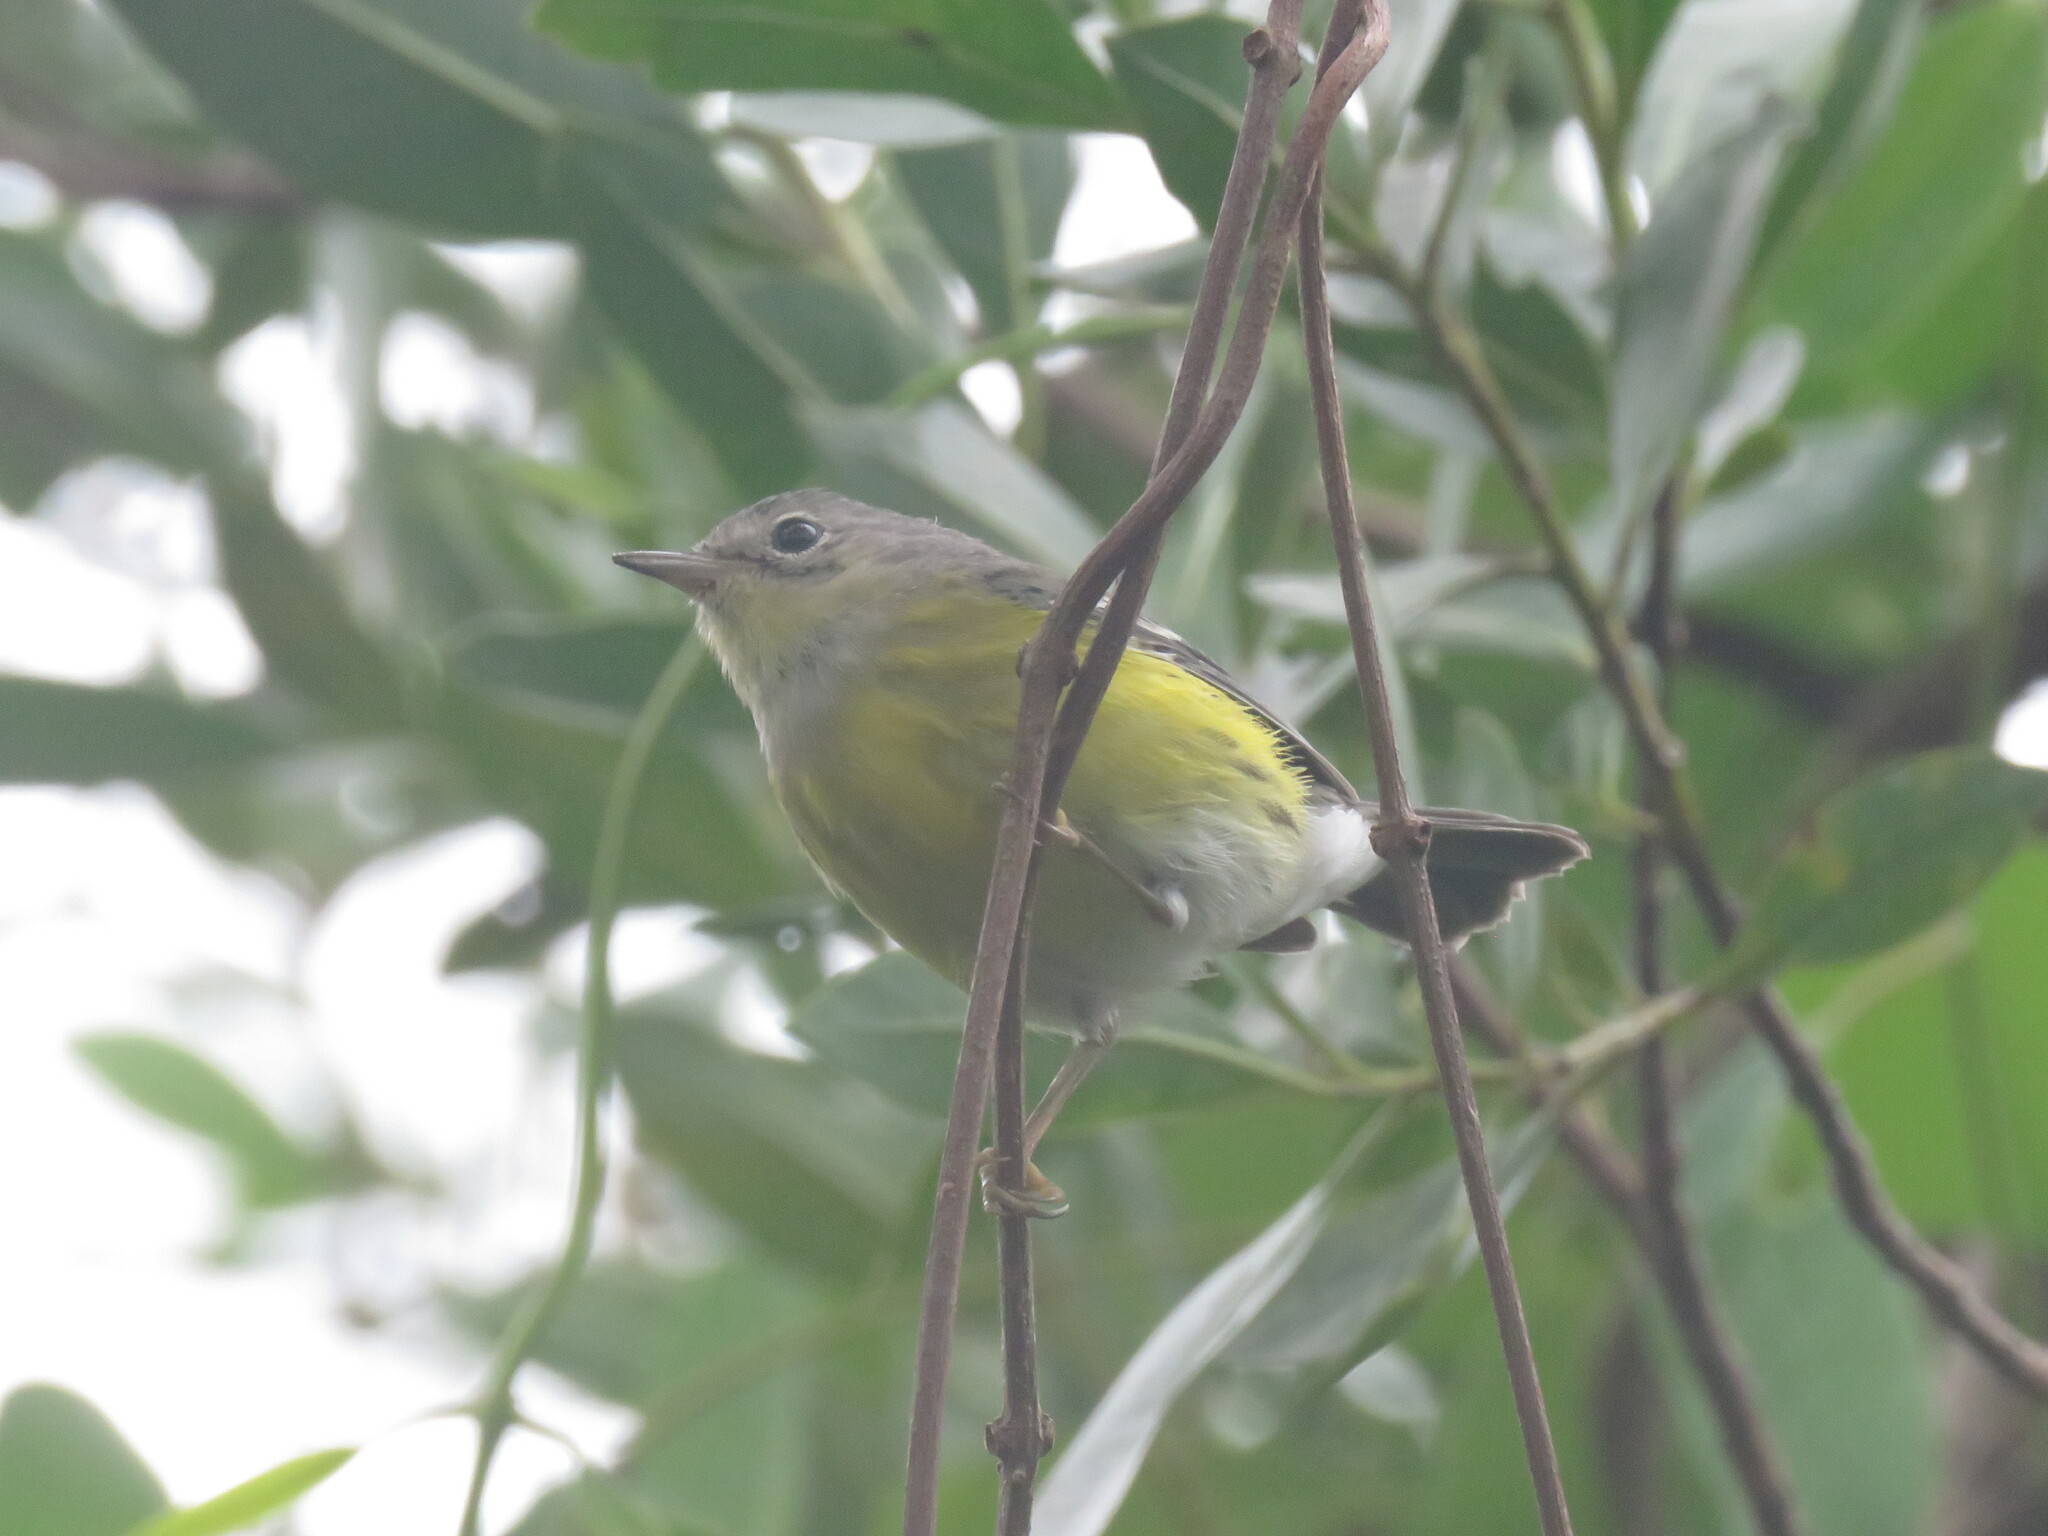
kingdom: Animalia
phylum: Chordata
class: Aves
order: Passeriformes
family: Parulidae
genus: Setophaga
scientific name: Setophaga magnolia
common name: Magnolia warbler
